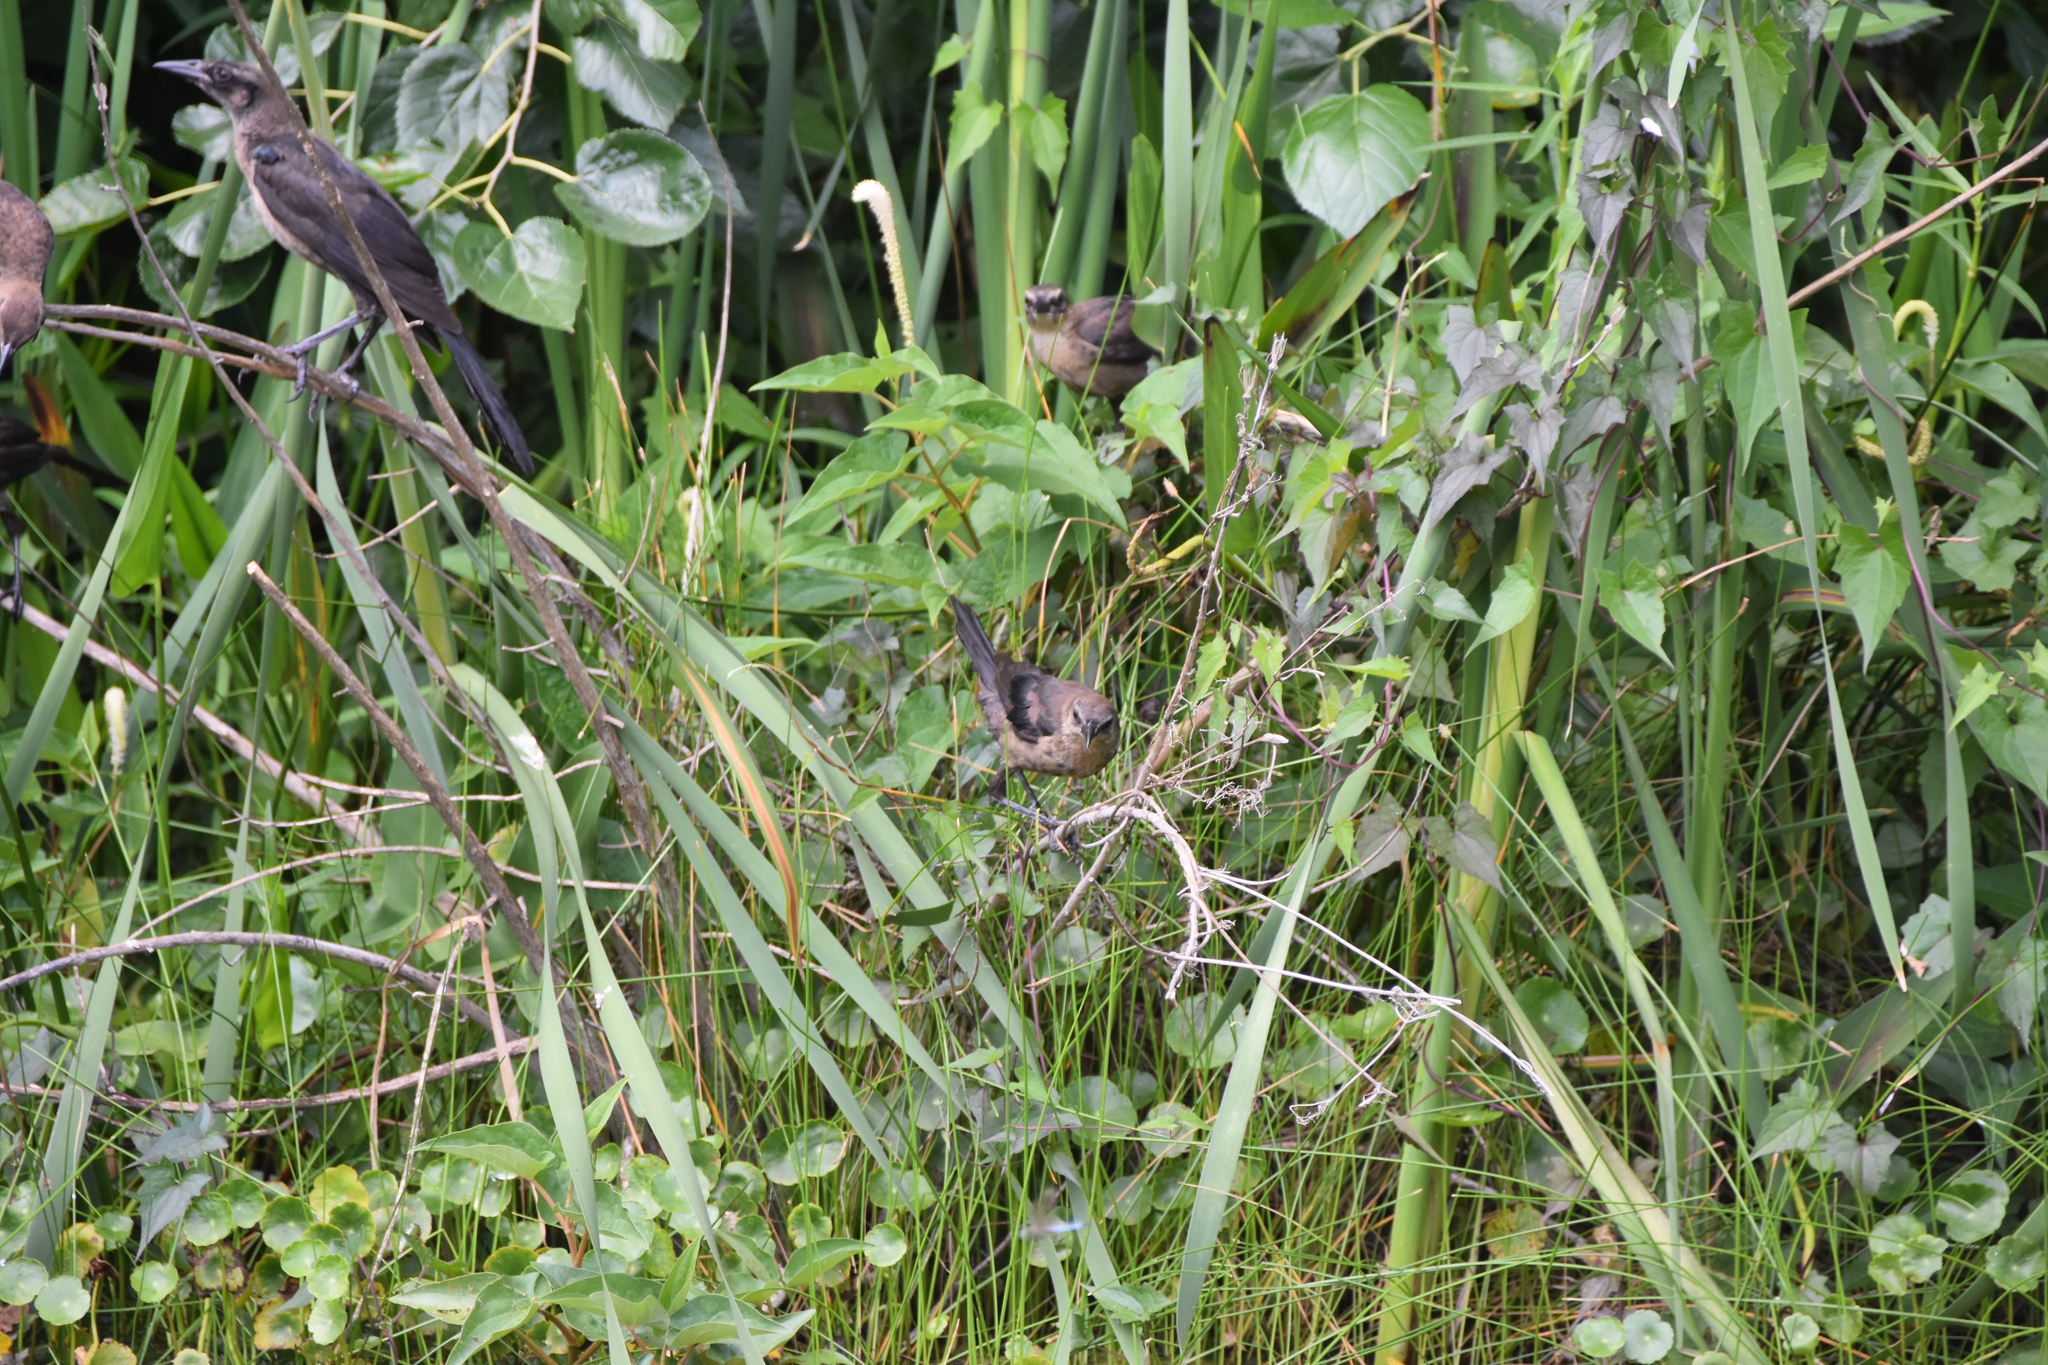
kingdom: Animalia
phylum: Chordata
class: Aves
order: Passeriformes
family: Icteridae
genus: Quiscalus
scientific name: Quiscalus mexicanus
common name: Great-tailed grackle
